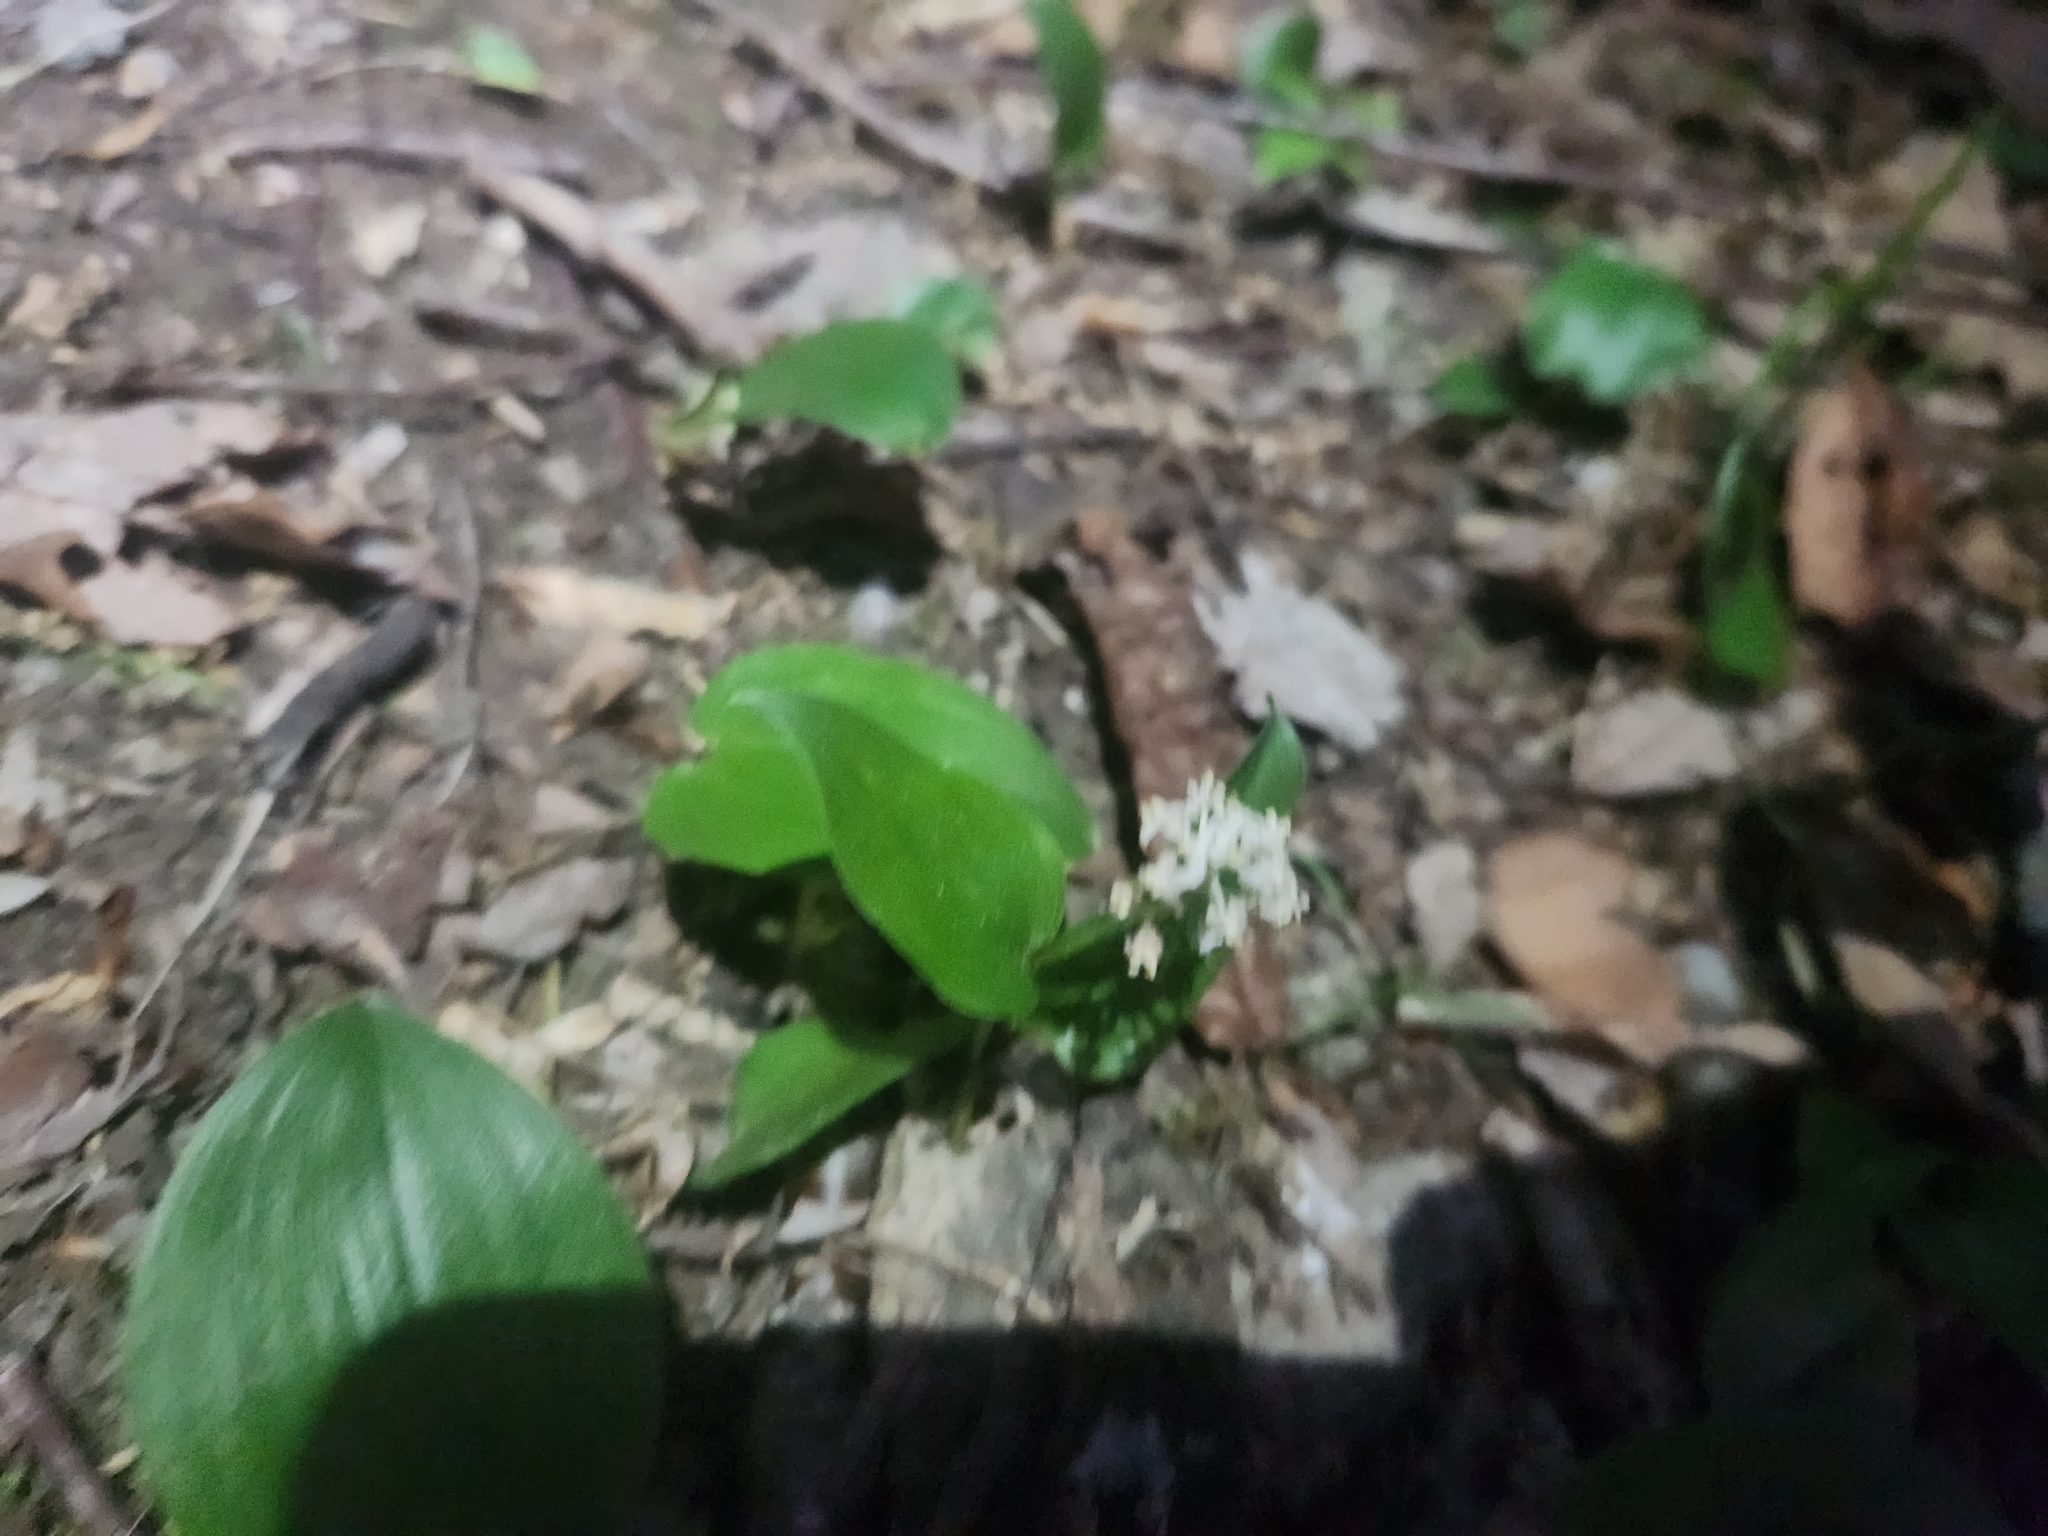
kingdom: Plantae
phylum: Tracheophyta
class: Liliopsida
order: Asparagales
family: Asparagaceae
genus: Maianthemum
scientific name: Maianthemum canadense
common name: False lily-of-the-valley
